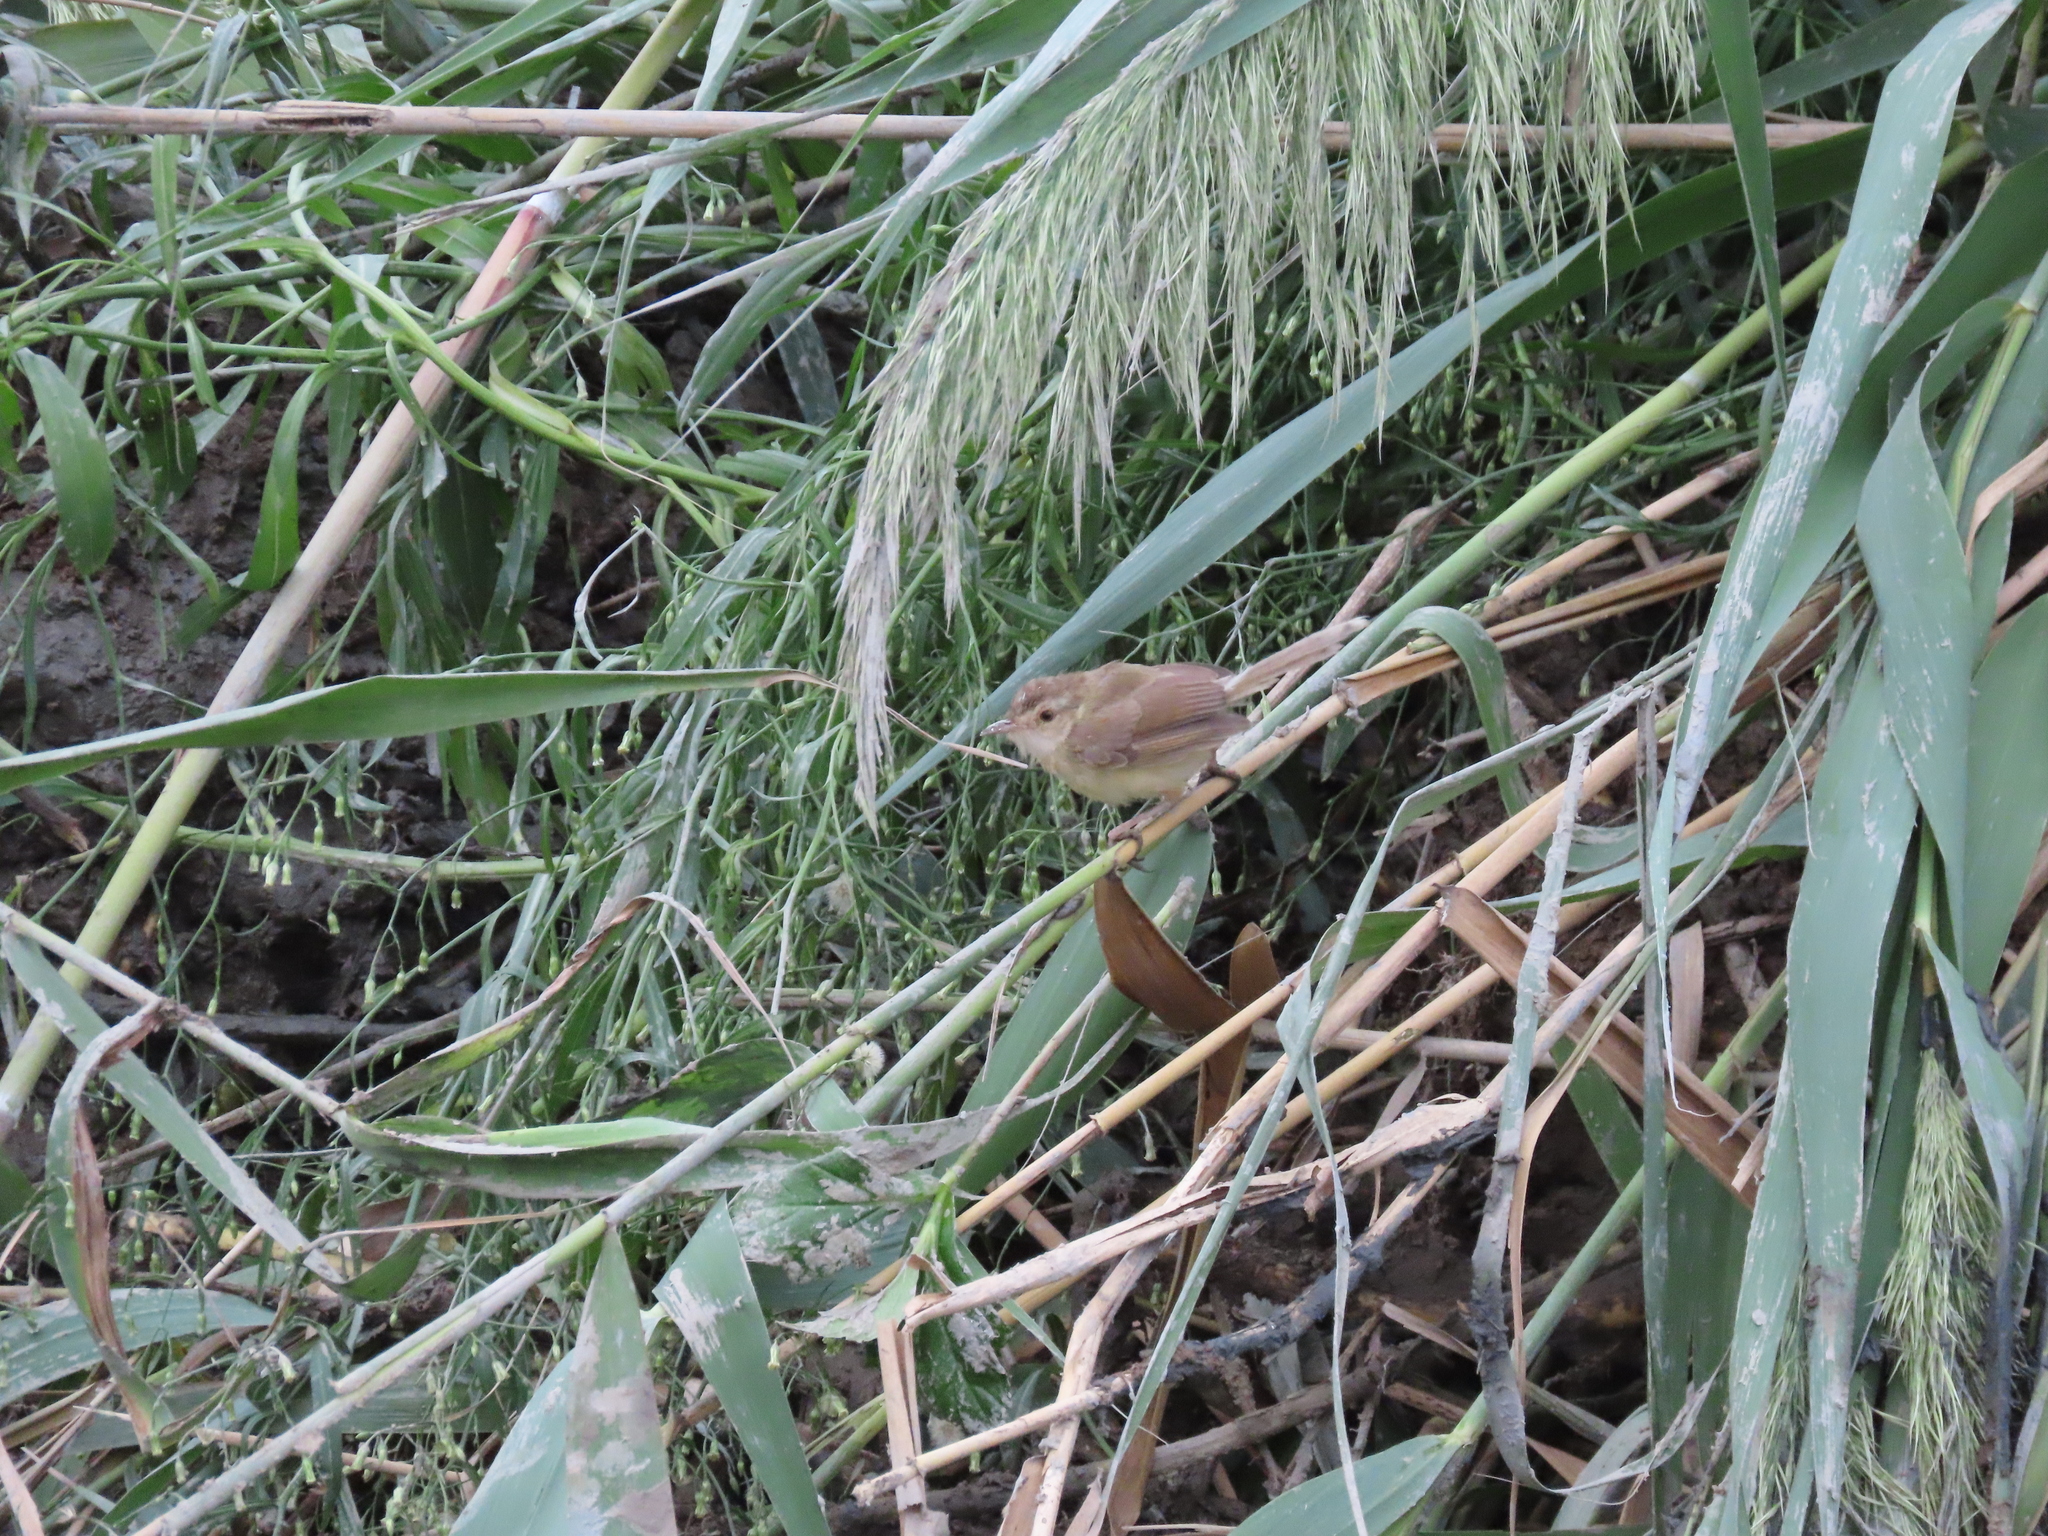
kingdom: Animalia
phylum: Chordata
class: Aves
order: Passeriformes
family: Cisticolidae
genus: Prinia
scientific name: Prinia inornata
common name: Plain prinia
